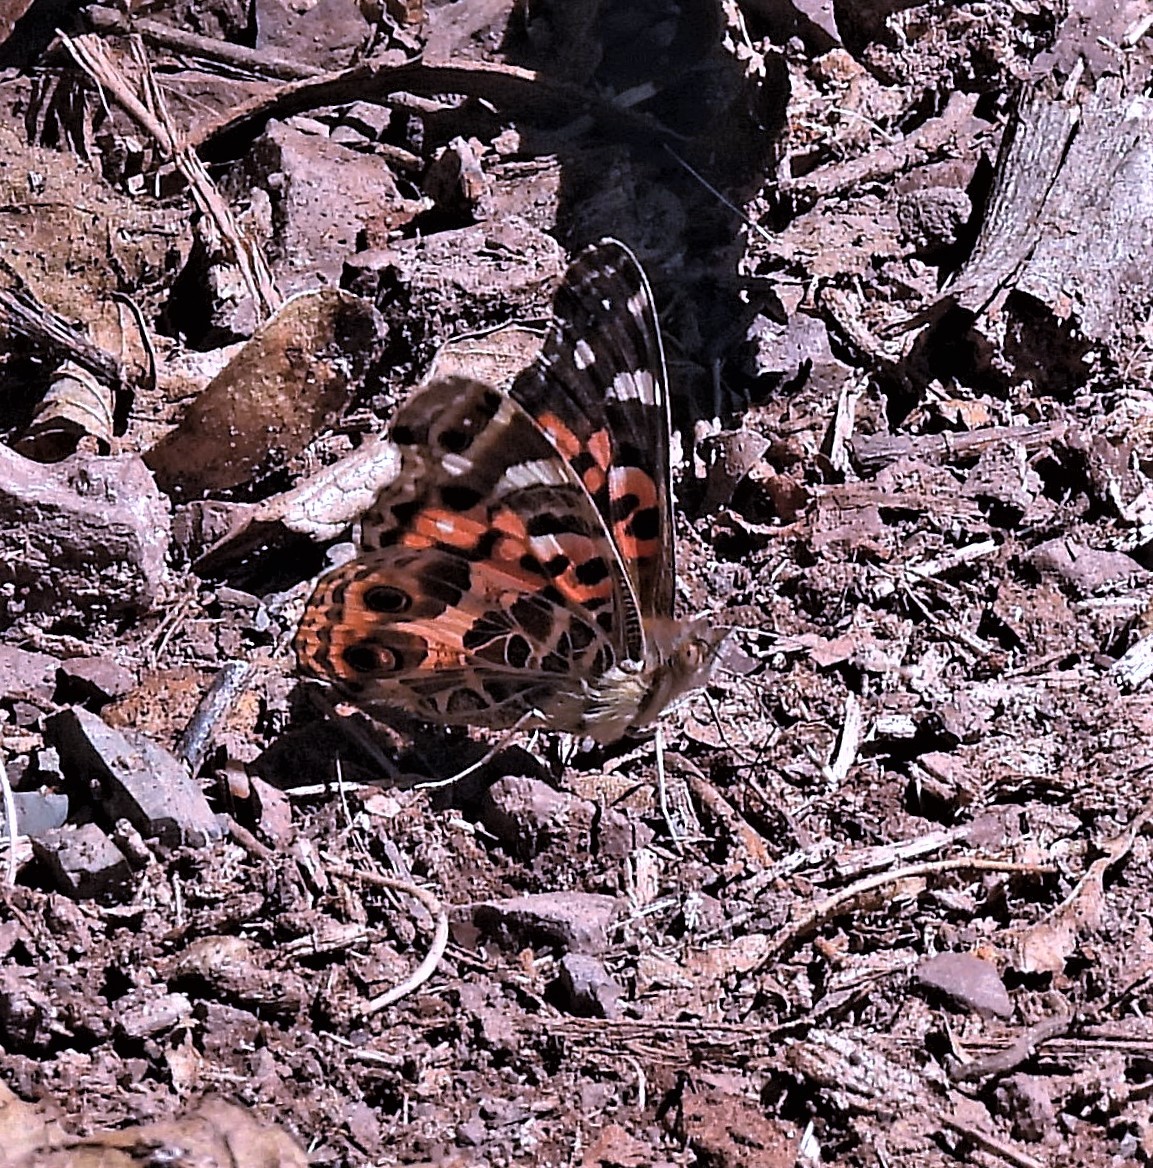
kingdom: Animalia
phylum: Arthropoda
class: Insecta
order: Lepidoptera
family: Nymphalidae
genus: Vanessa
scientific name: Vanessa braziliensis
